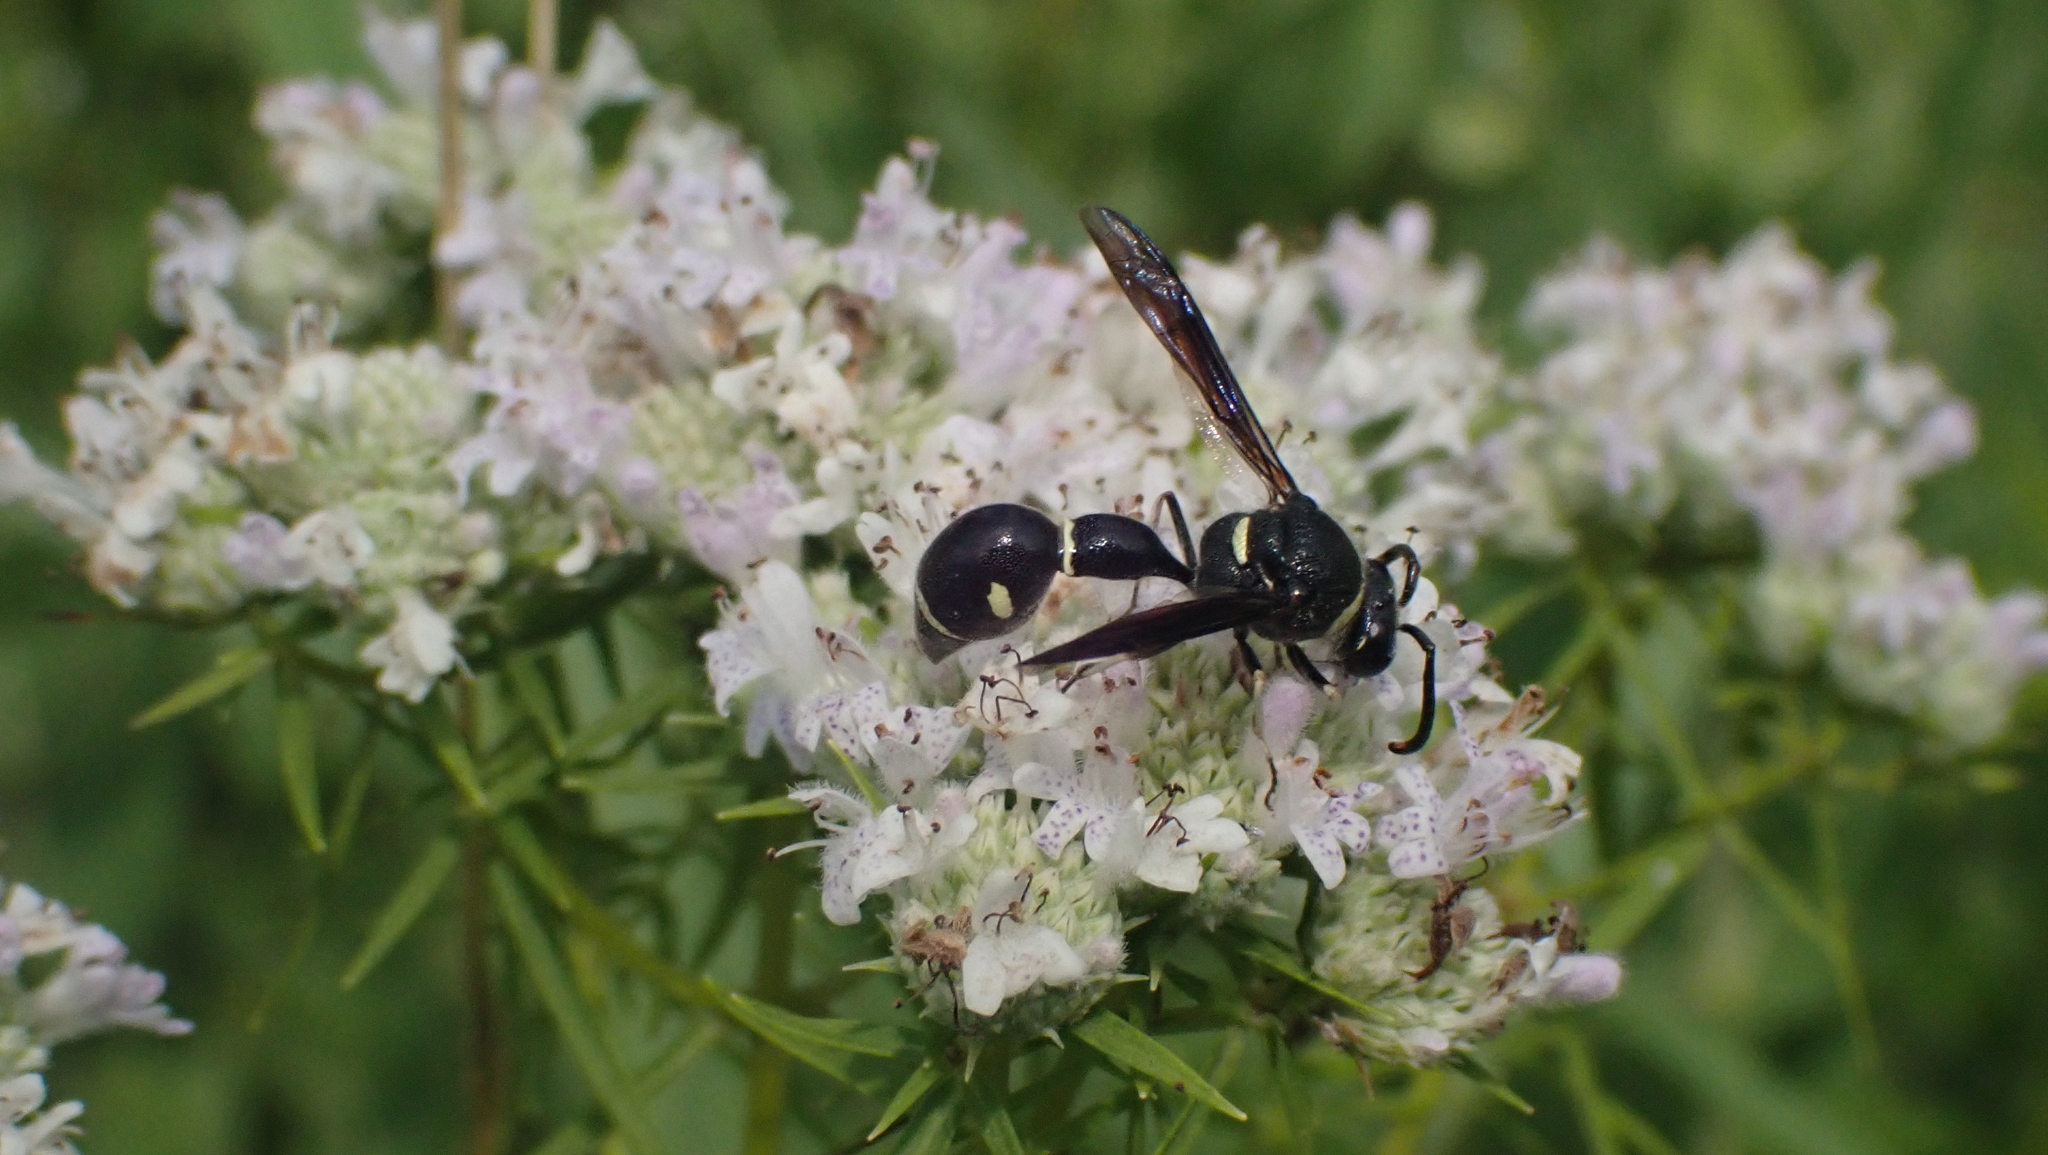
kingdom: Animalia
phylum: Arthropoda
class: Insecta
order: Hymenoptera
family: Vespidae
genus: Eumenes
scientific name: Eumenes fraternus
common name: Fraternal potter wasp
